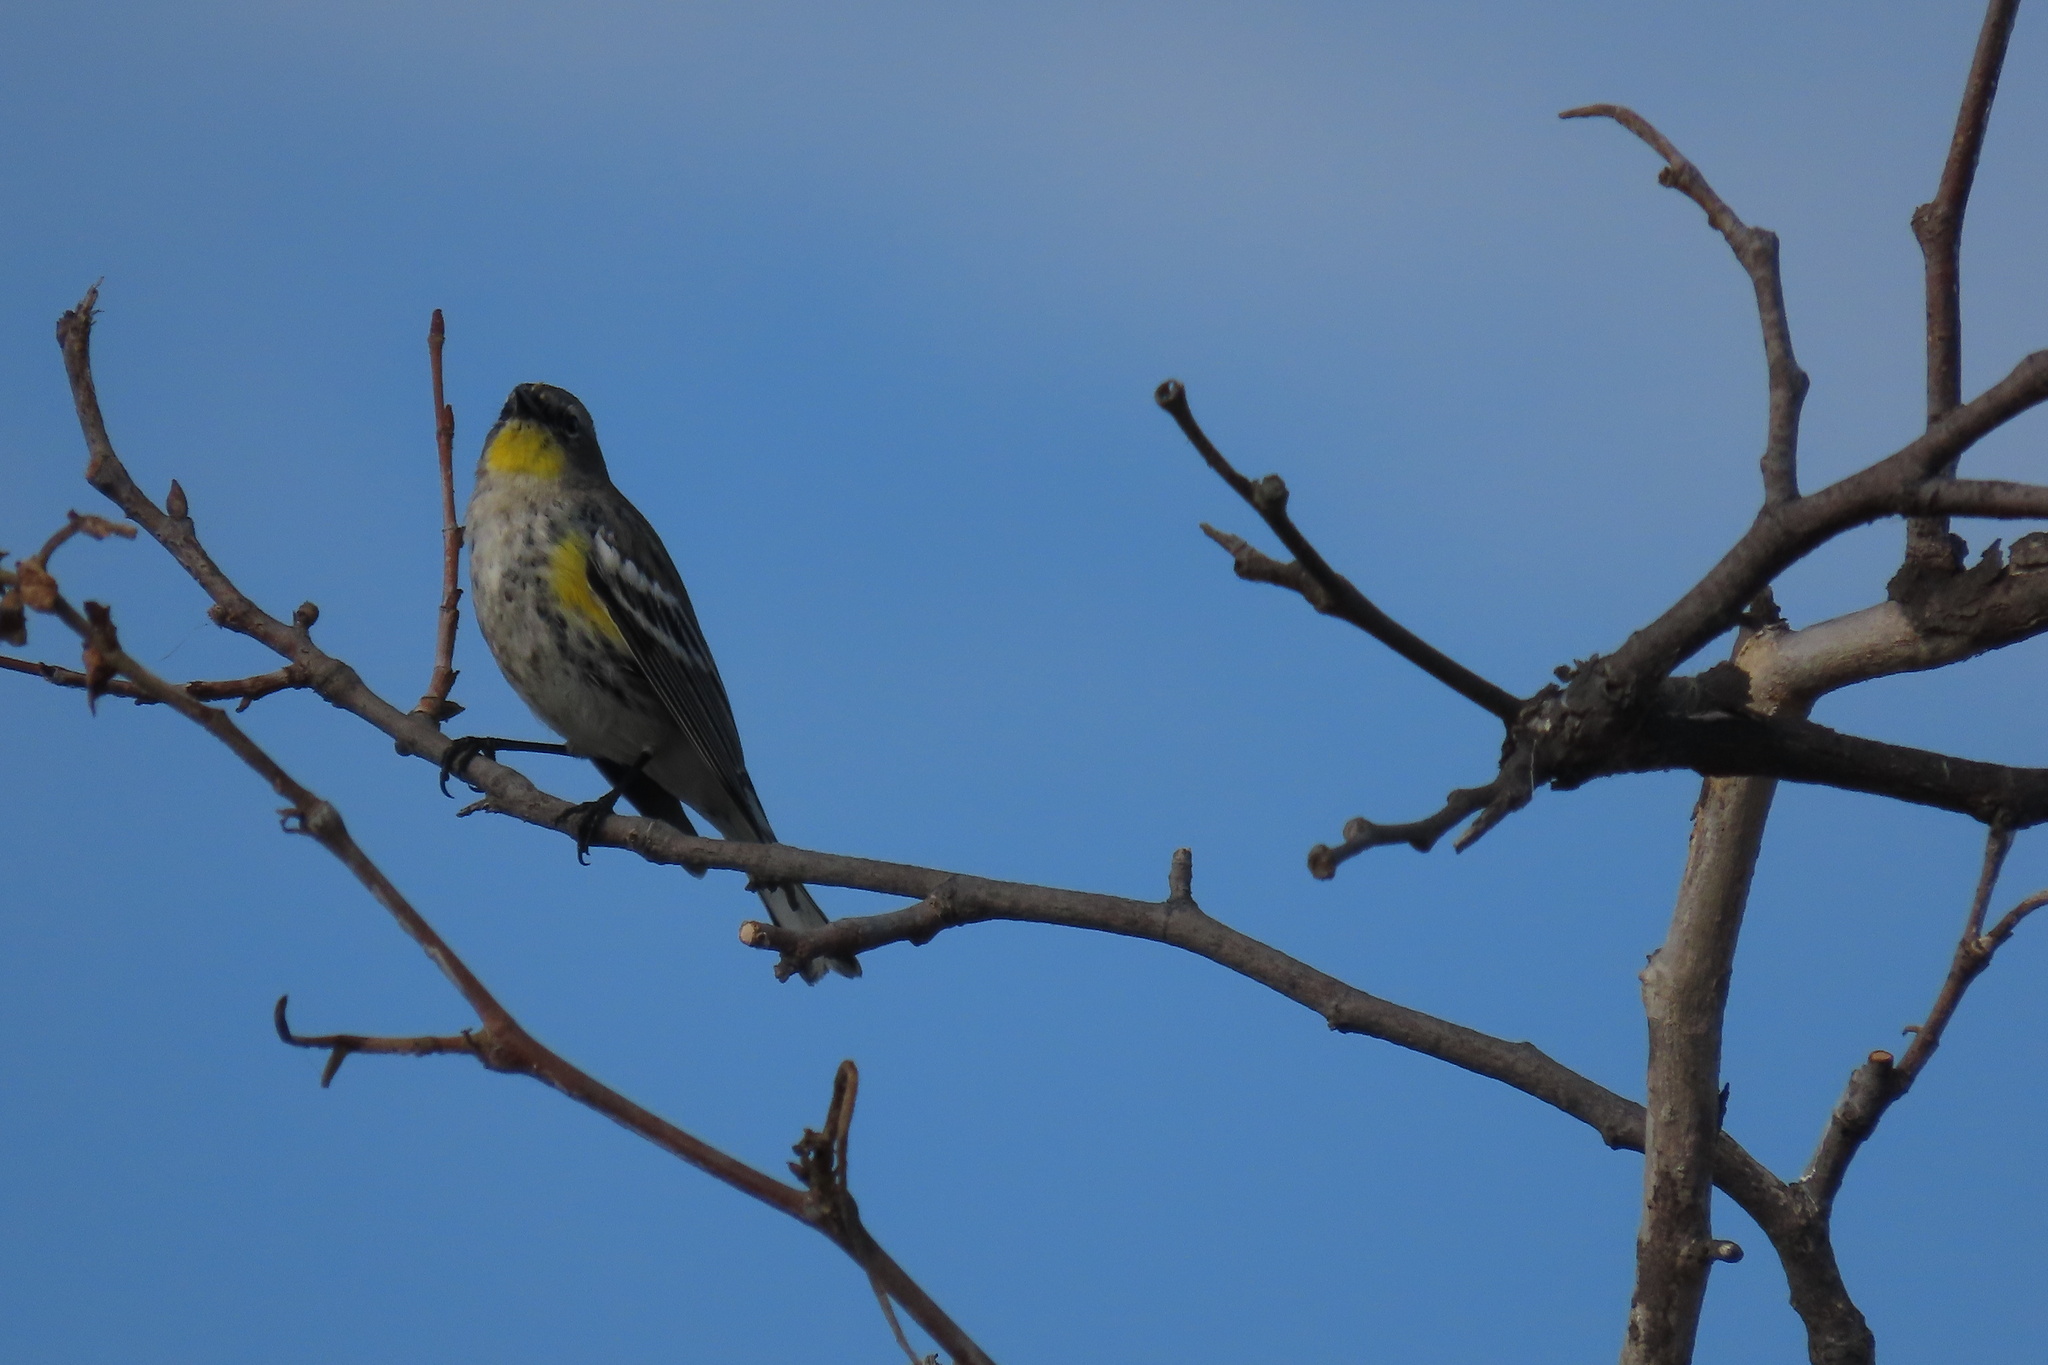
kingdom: Animalia
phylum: Chordata
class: Aves
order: Passeriformes
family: Parulidae
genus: Setophaga
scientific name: Setophaga coronata
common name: Myrtle warbler
